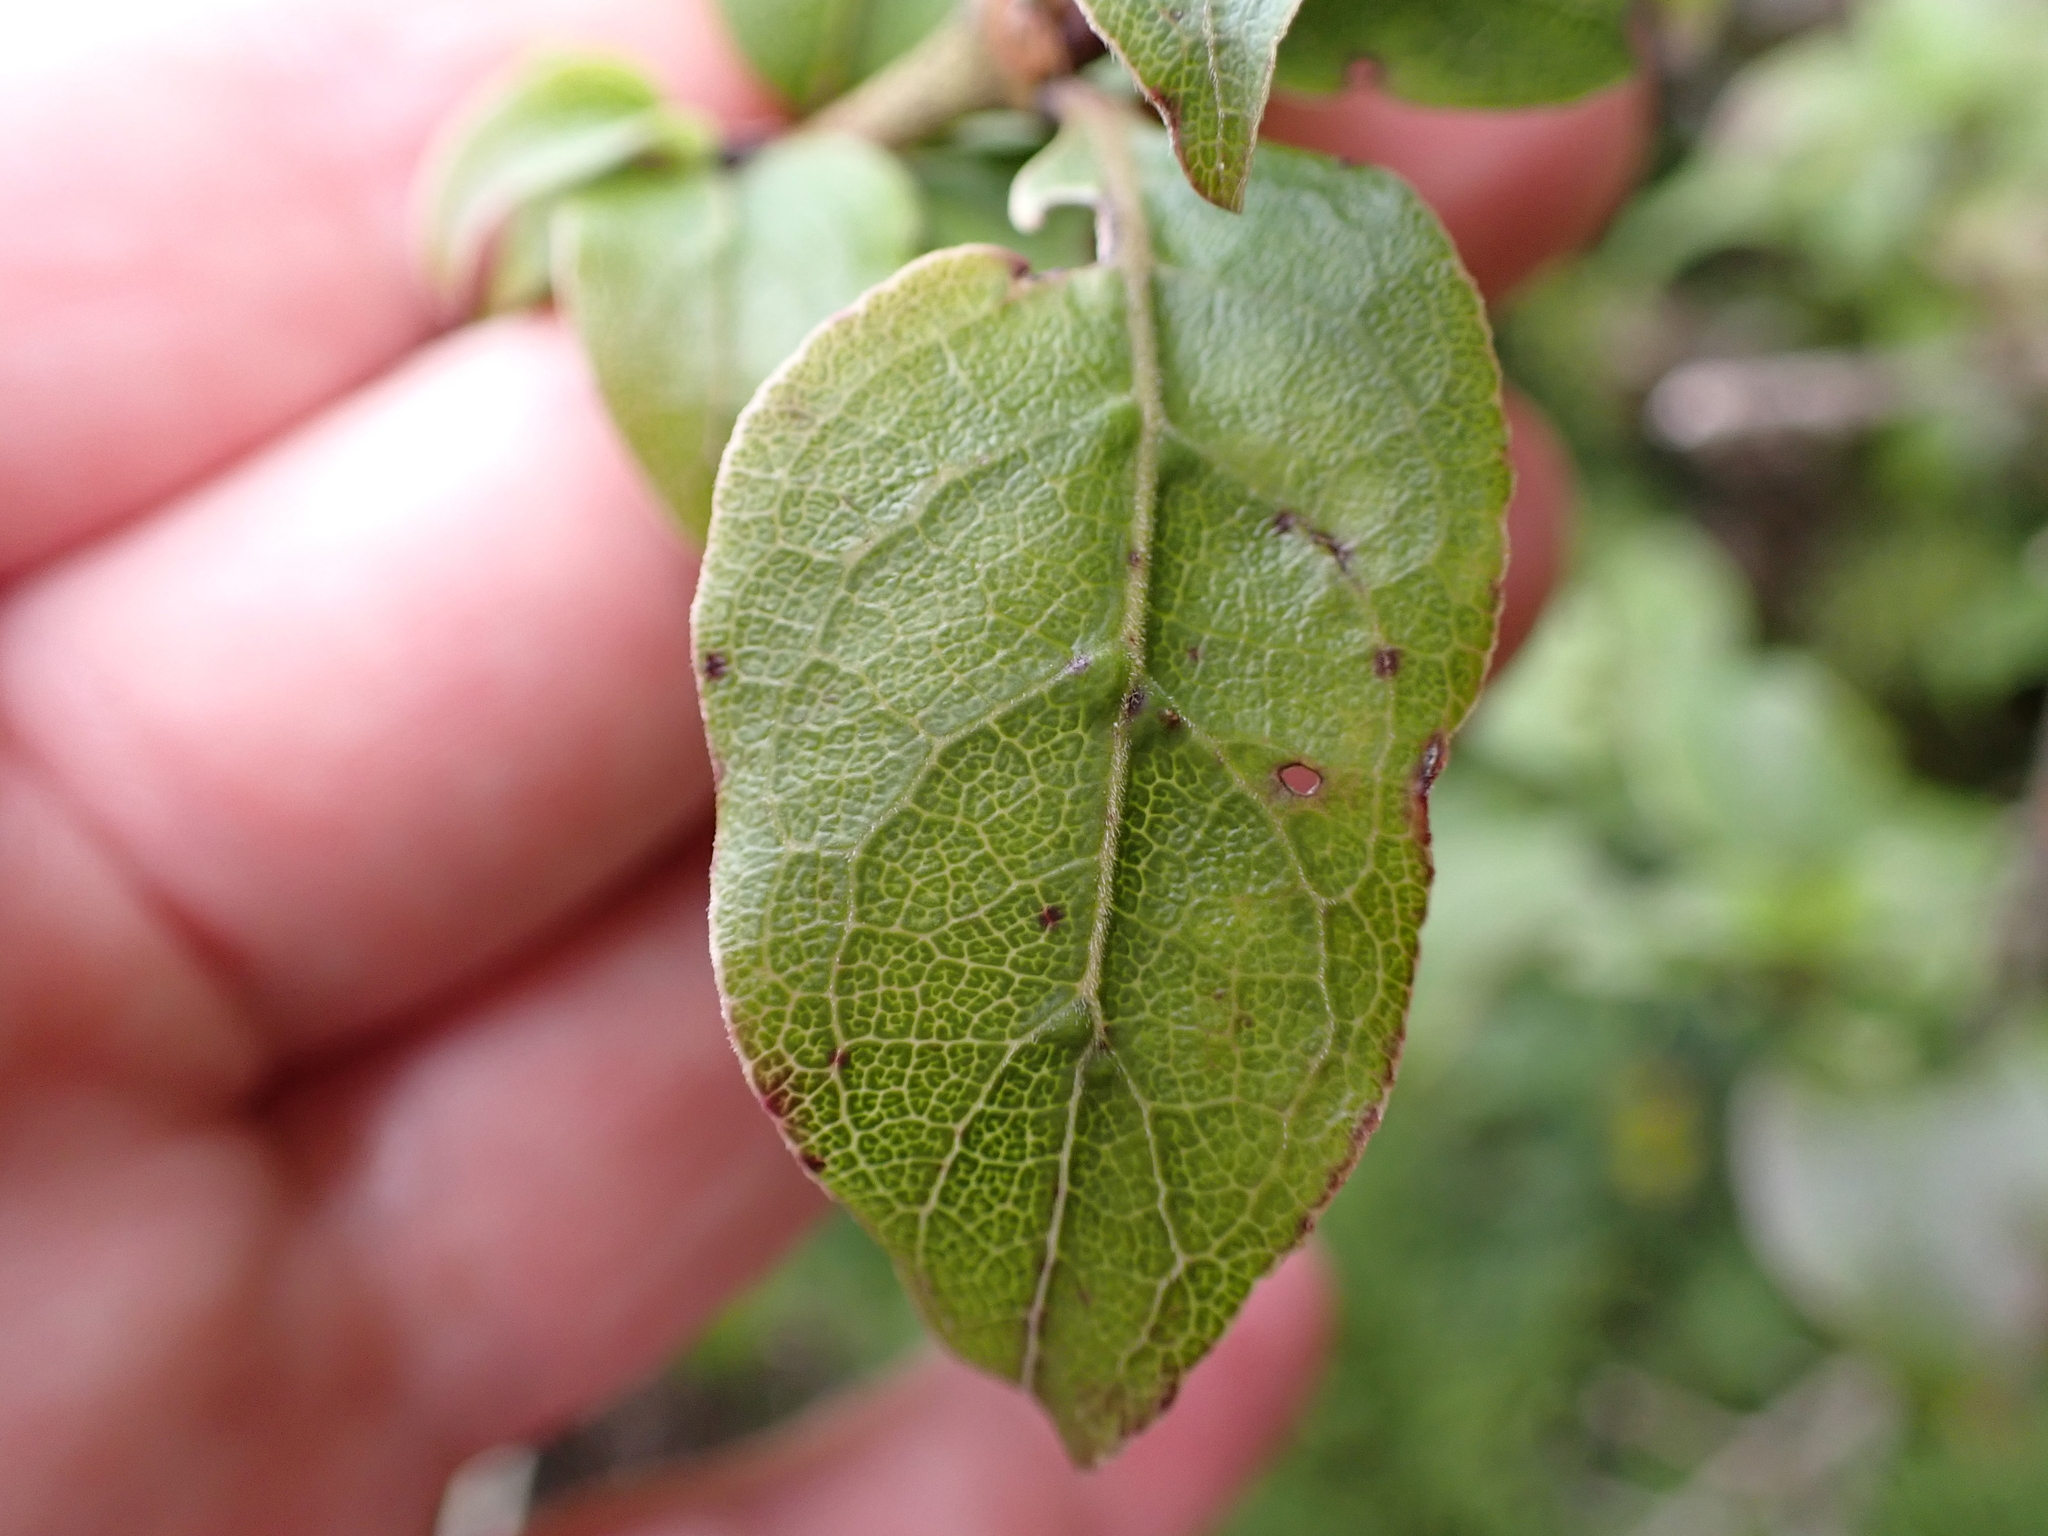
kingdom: Plantae
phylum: Tracheophyta
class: Magnoliopsida
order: Gentianales
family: Rubiaceae
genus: Coprosma
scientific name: Coprosma tenuifolia
